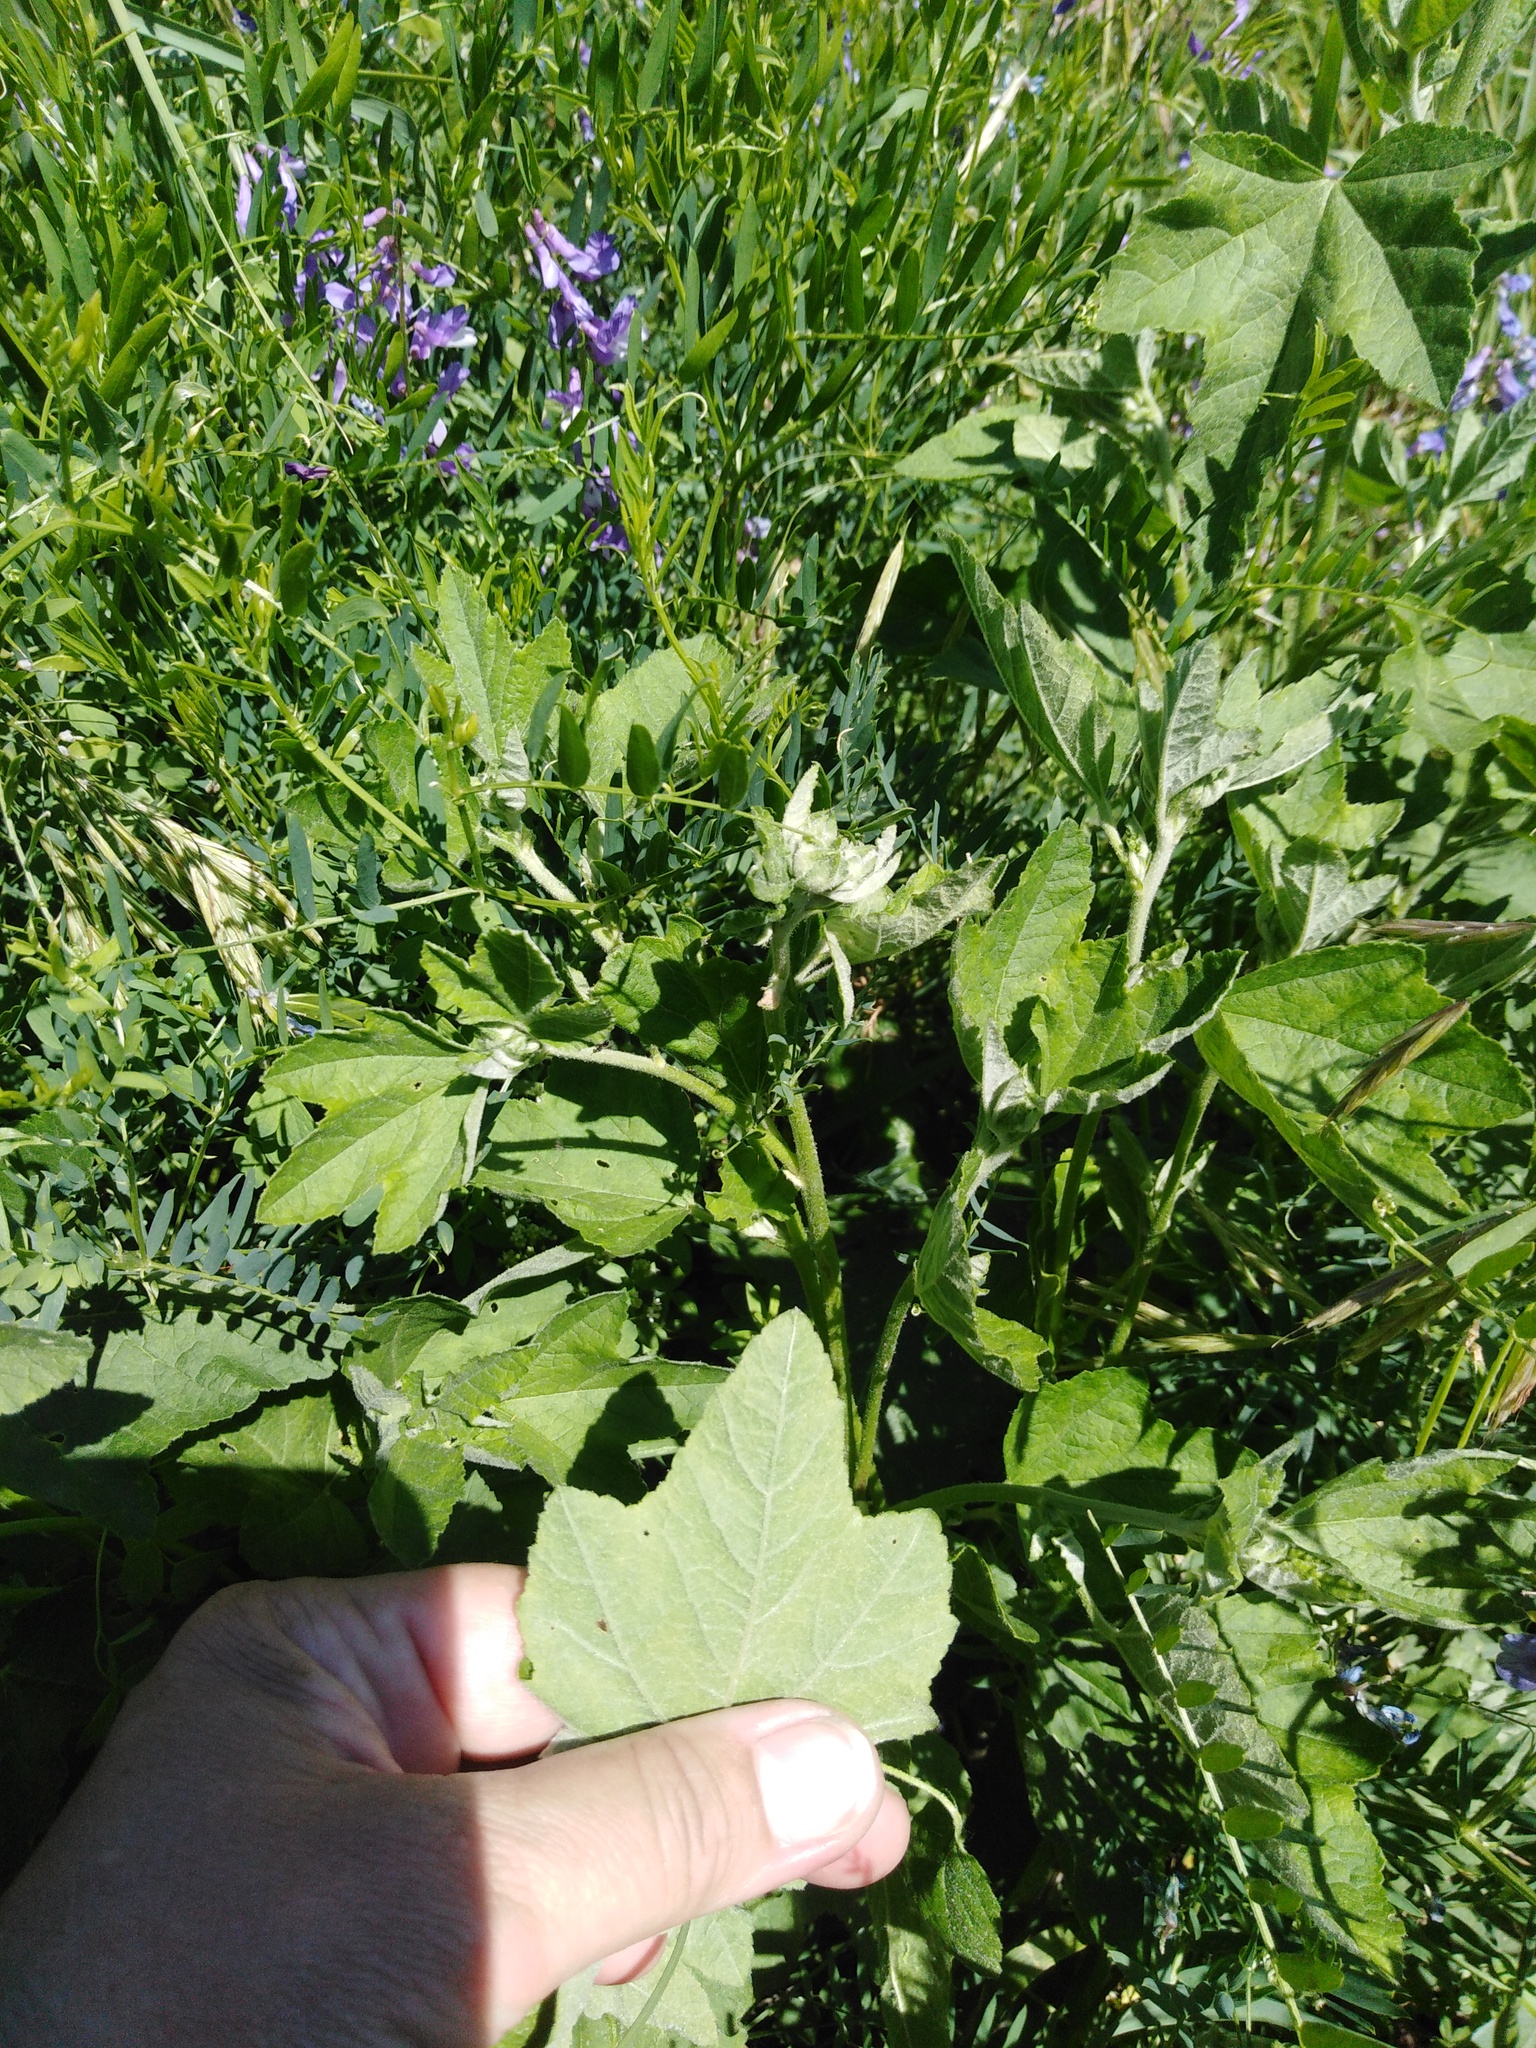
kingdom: Plantae
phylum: Tracheophyta
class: Magnoliopsida
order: Malvales
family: Malvaceae
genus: Malva
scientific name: Malva thuringiaca
